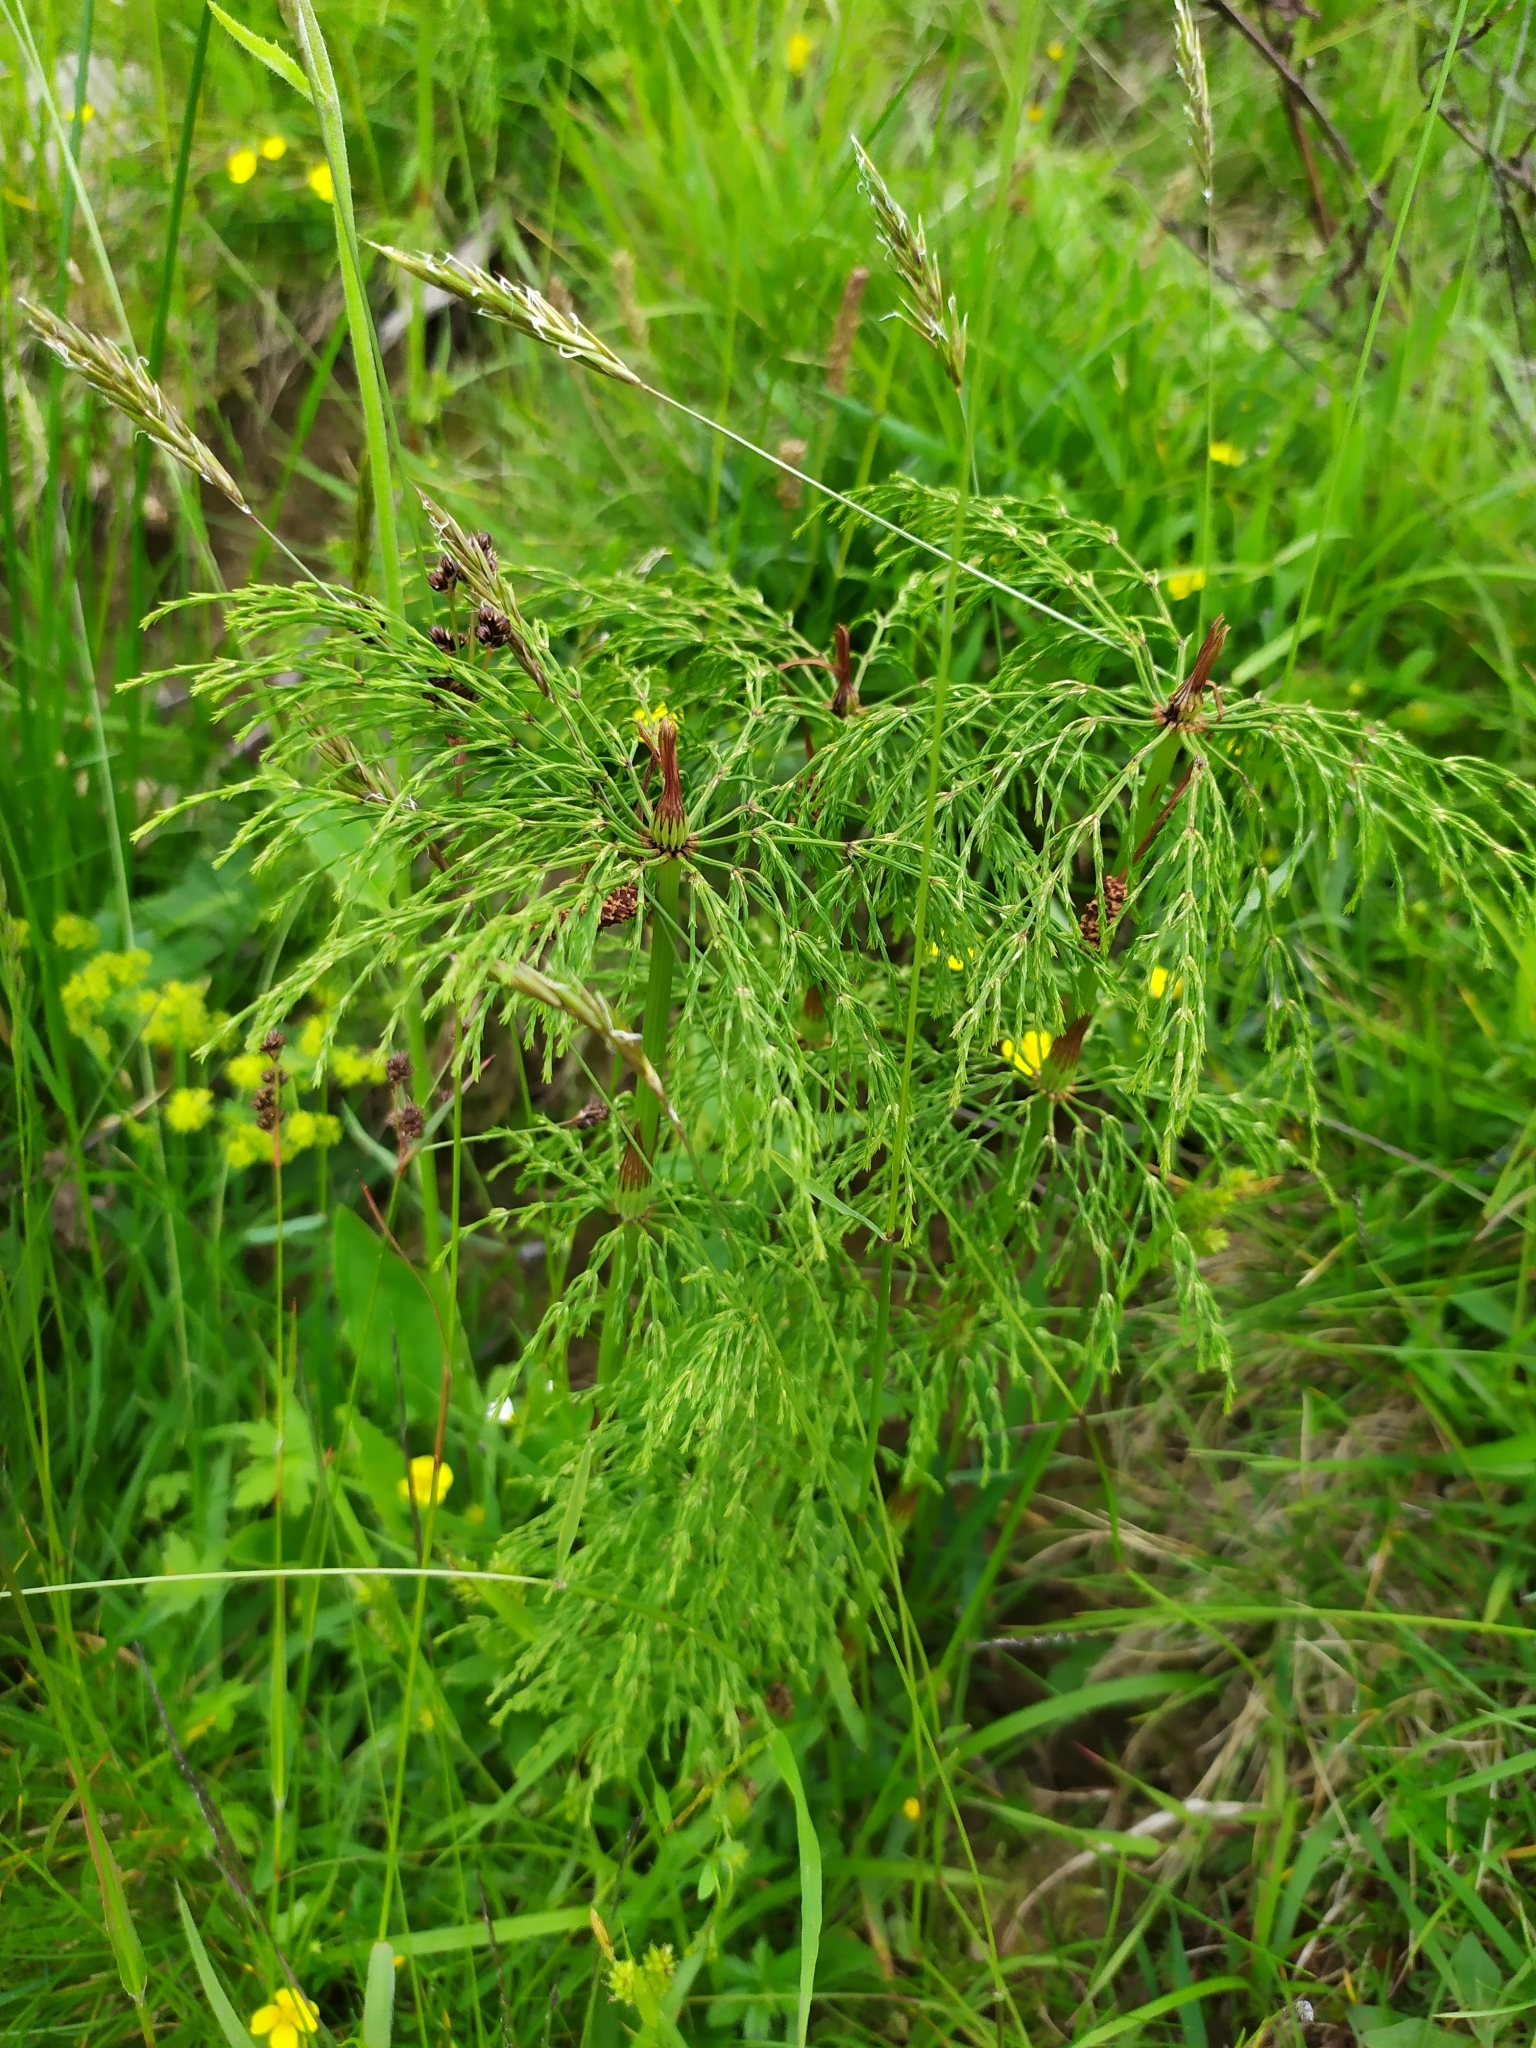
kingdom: Plantae
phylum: Tracheophyta
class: Polypodiopsida
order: Equisetales
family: Equisetaceae
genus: Equisetum
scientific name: Equisetum sylvaticum
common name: Wood horsetail
